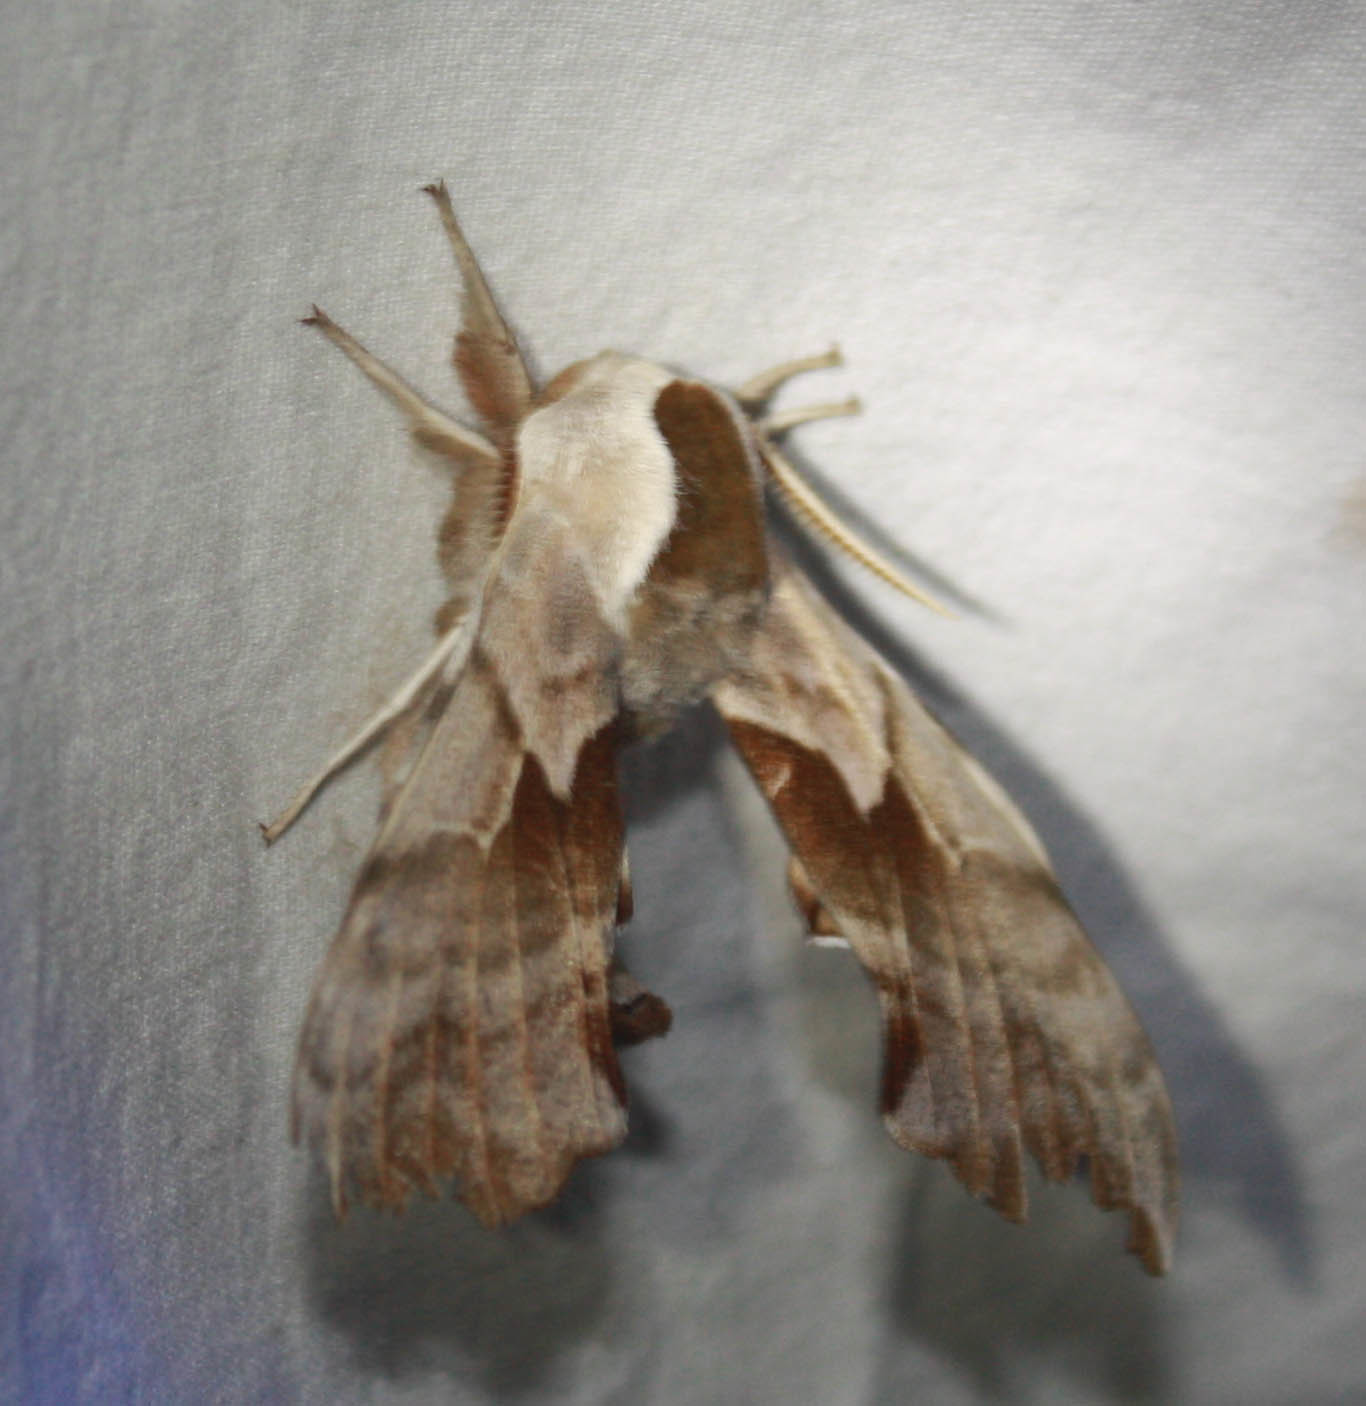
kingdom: Animalia
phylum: Arthropoda
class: Insecta
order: Lepidoptera
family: Sphingidae
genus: Smerinthus
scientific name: Smerinthus cerisyi
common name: Cerisy's sphinx moth
